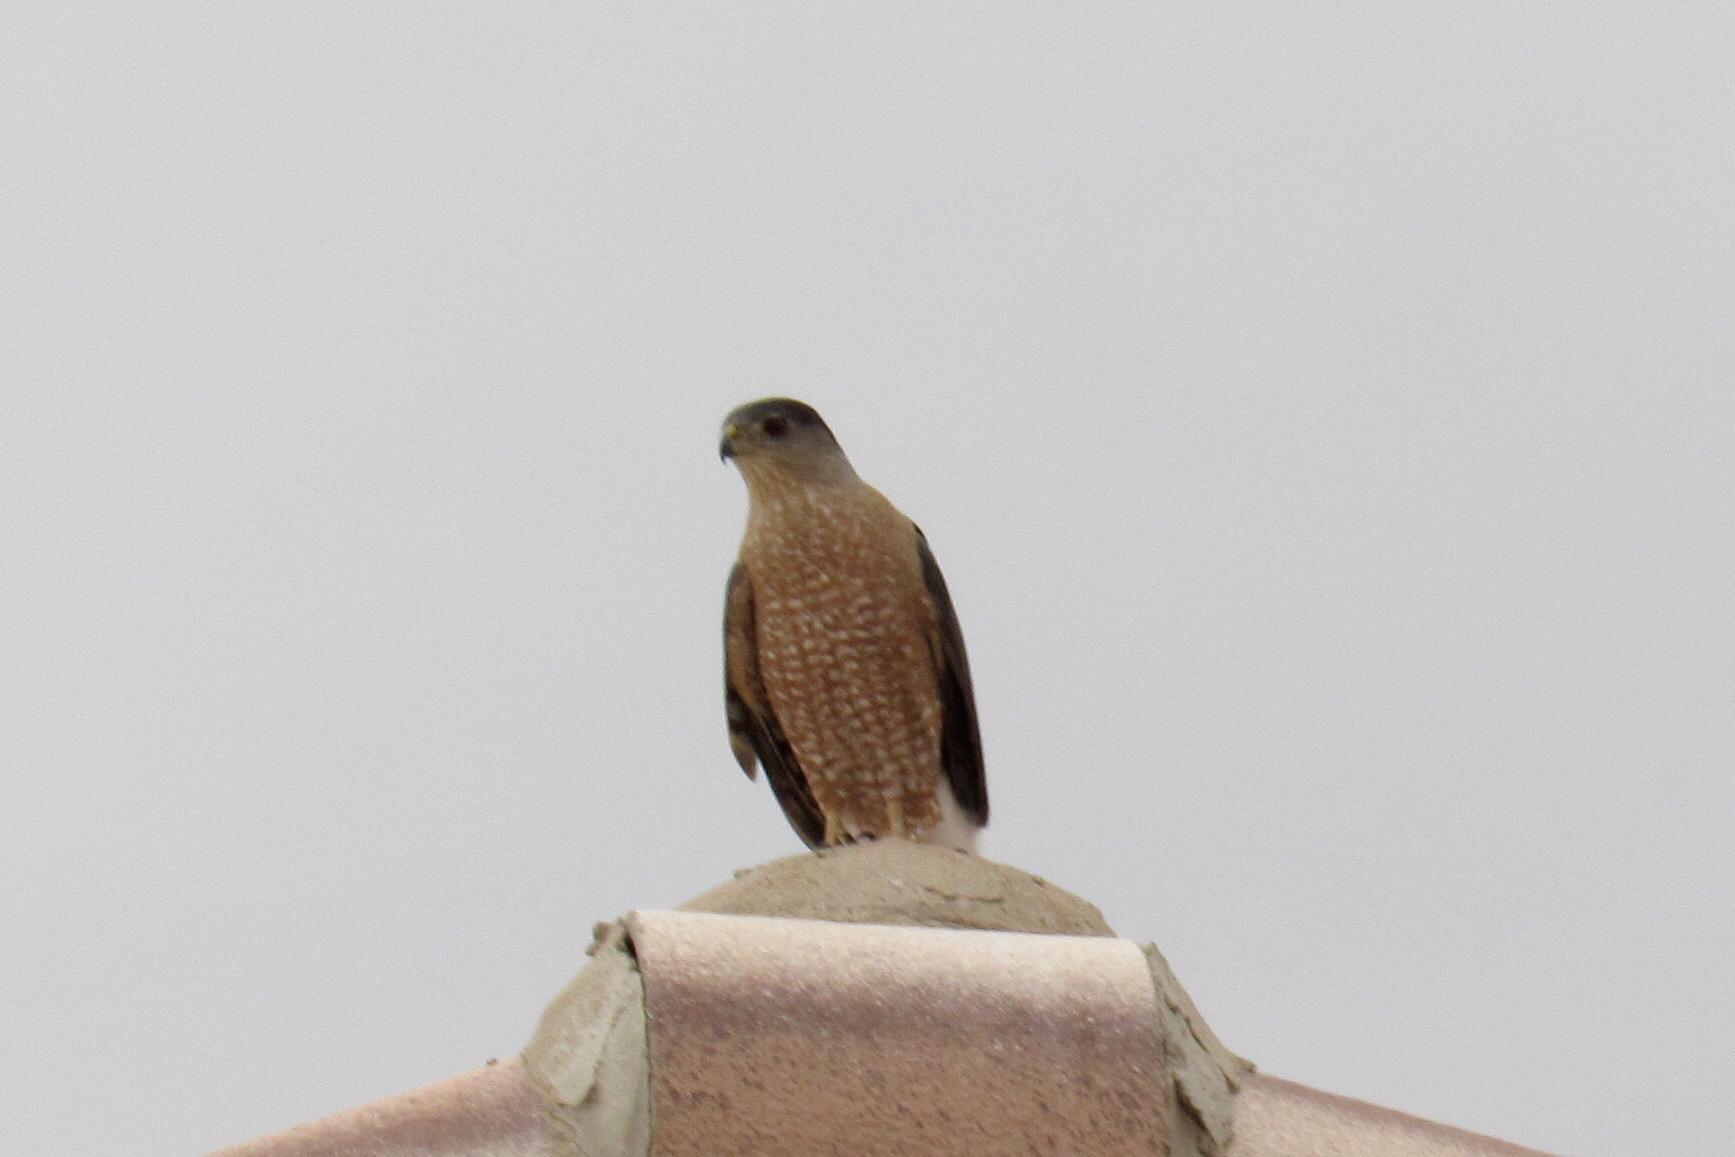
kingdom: Animalia
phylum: Chordata
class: Aves
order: Accipitriformes
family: Accipitridae
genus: Accipiter
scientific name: Accipiter cooperii
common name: Cooper's hawk
